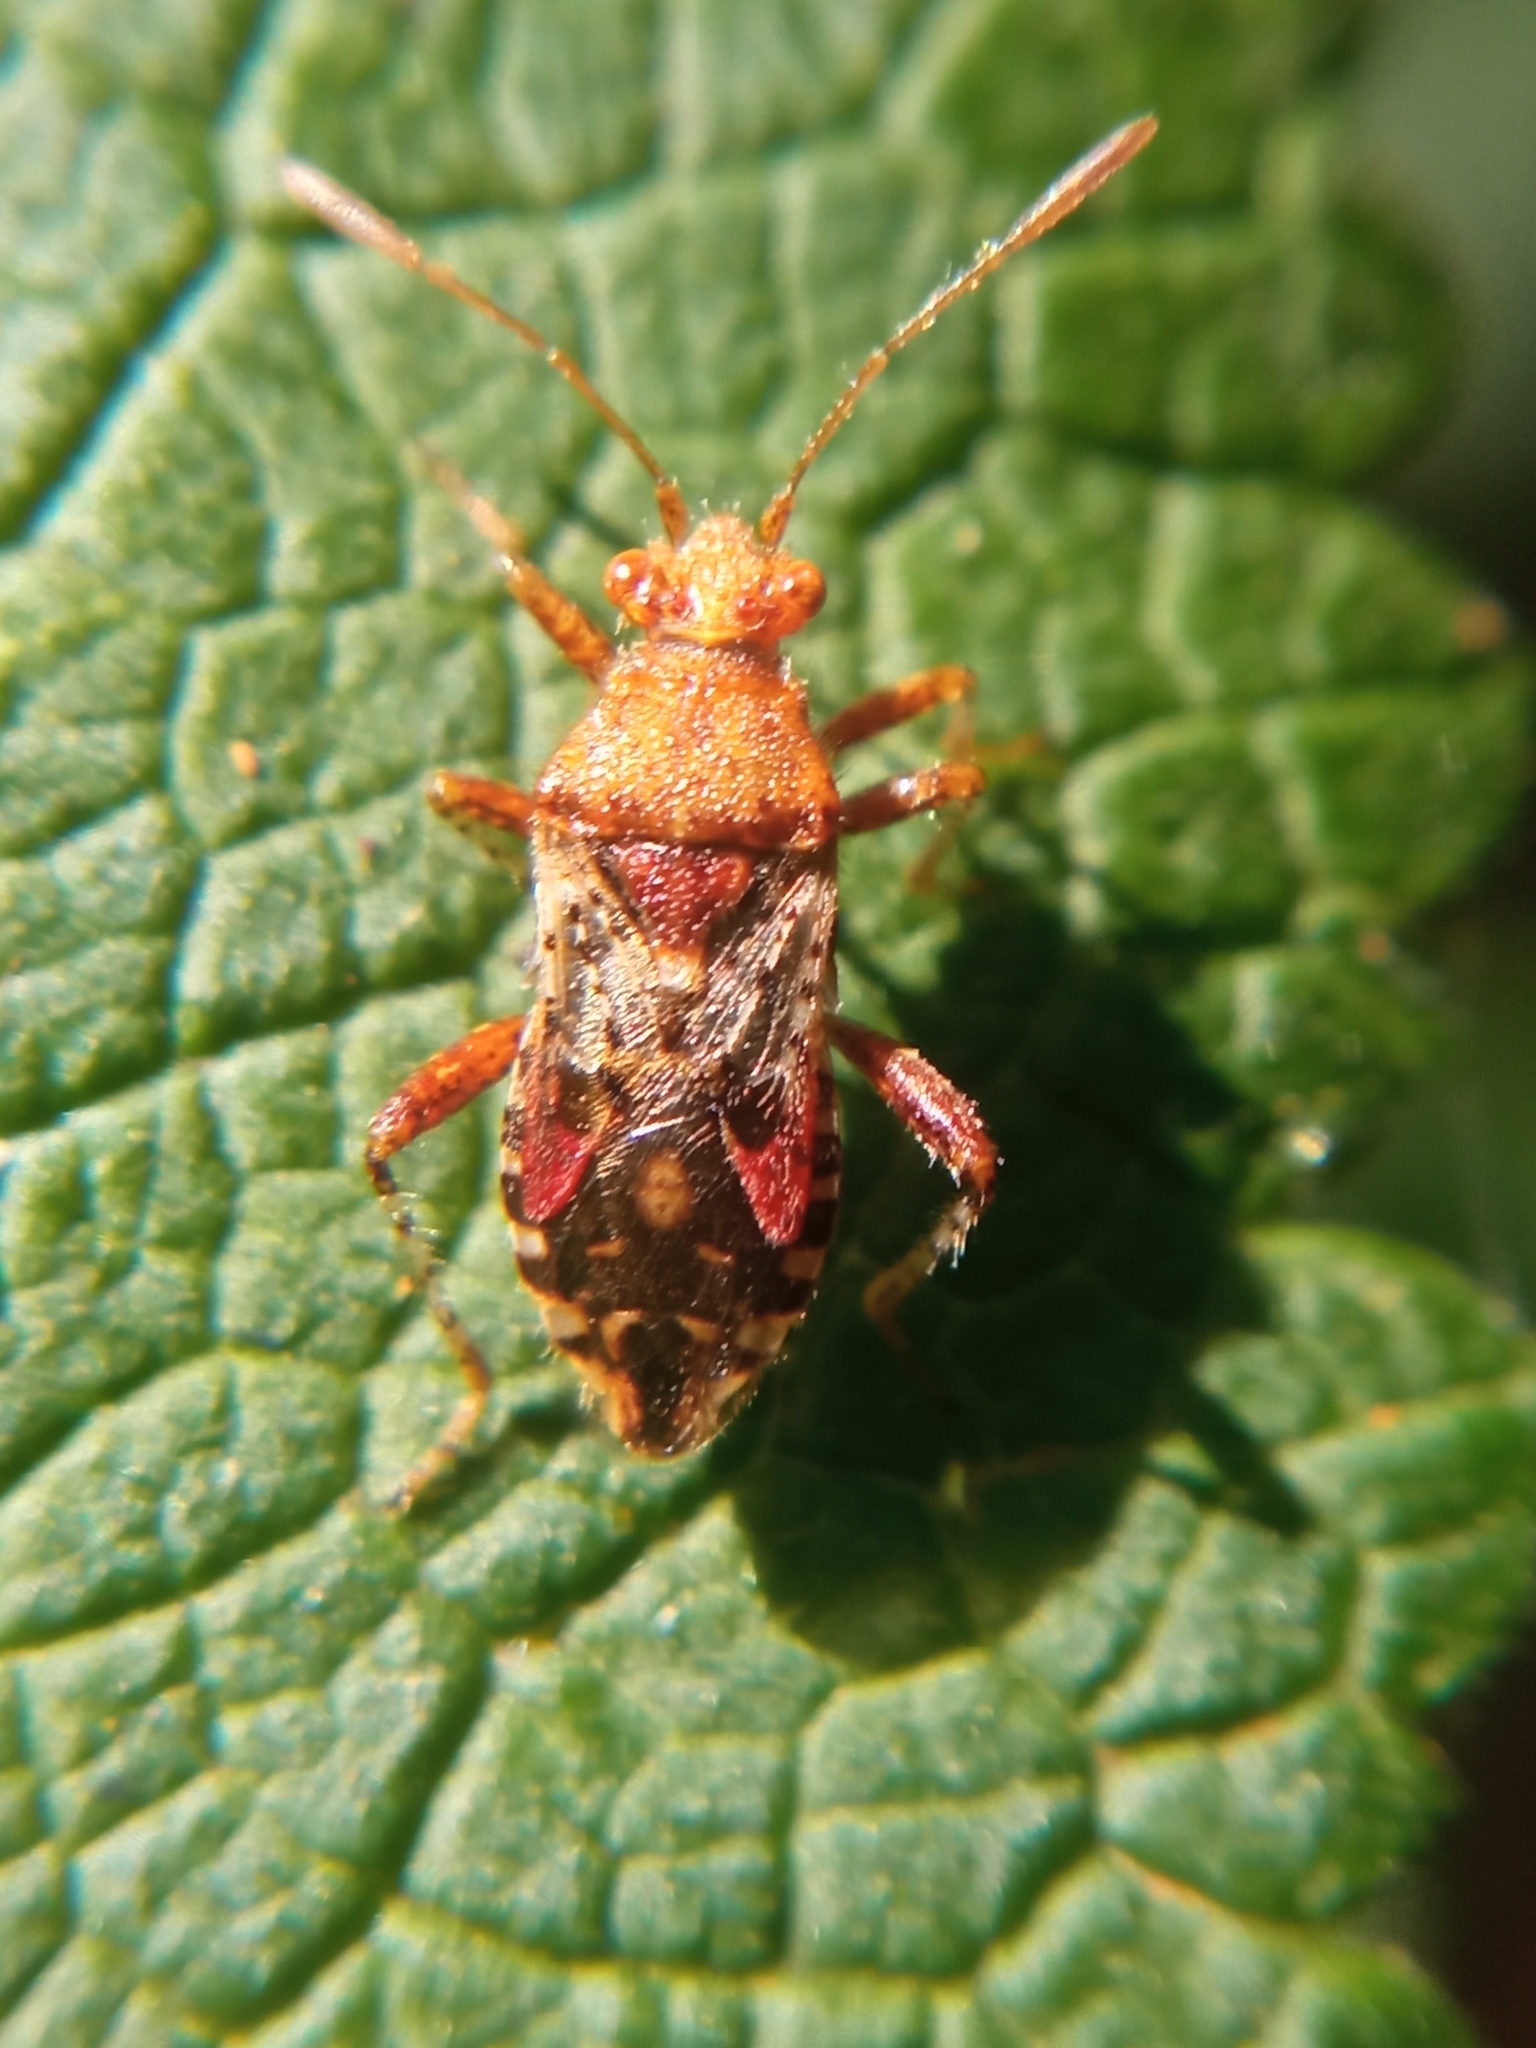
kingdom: Animalia
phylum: Arthropoda
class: Insecta
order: Hemiptera
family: Rhopalidae
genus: Rhopalus
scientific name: Rhopalus subrufus
